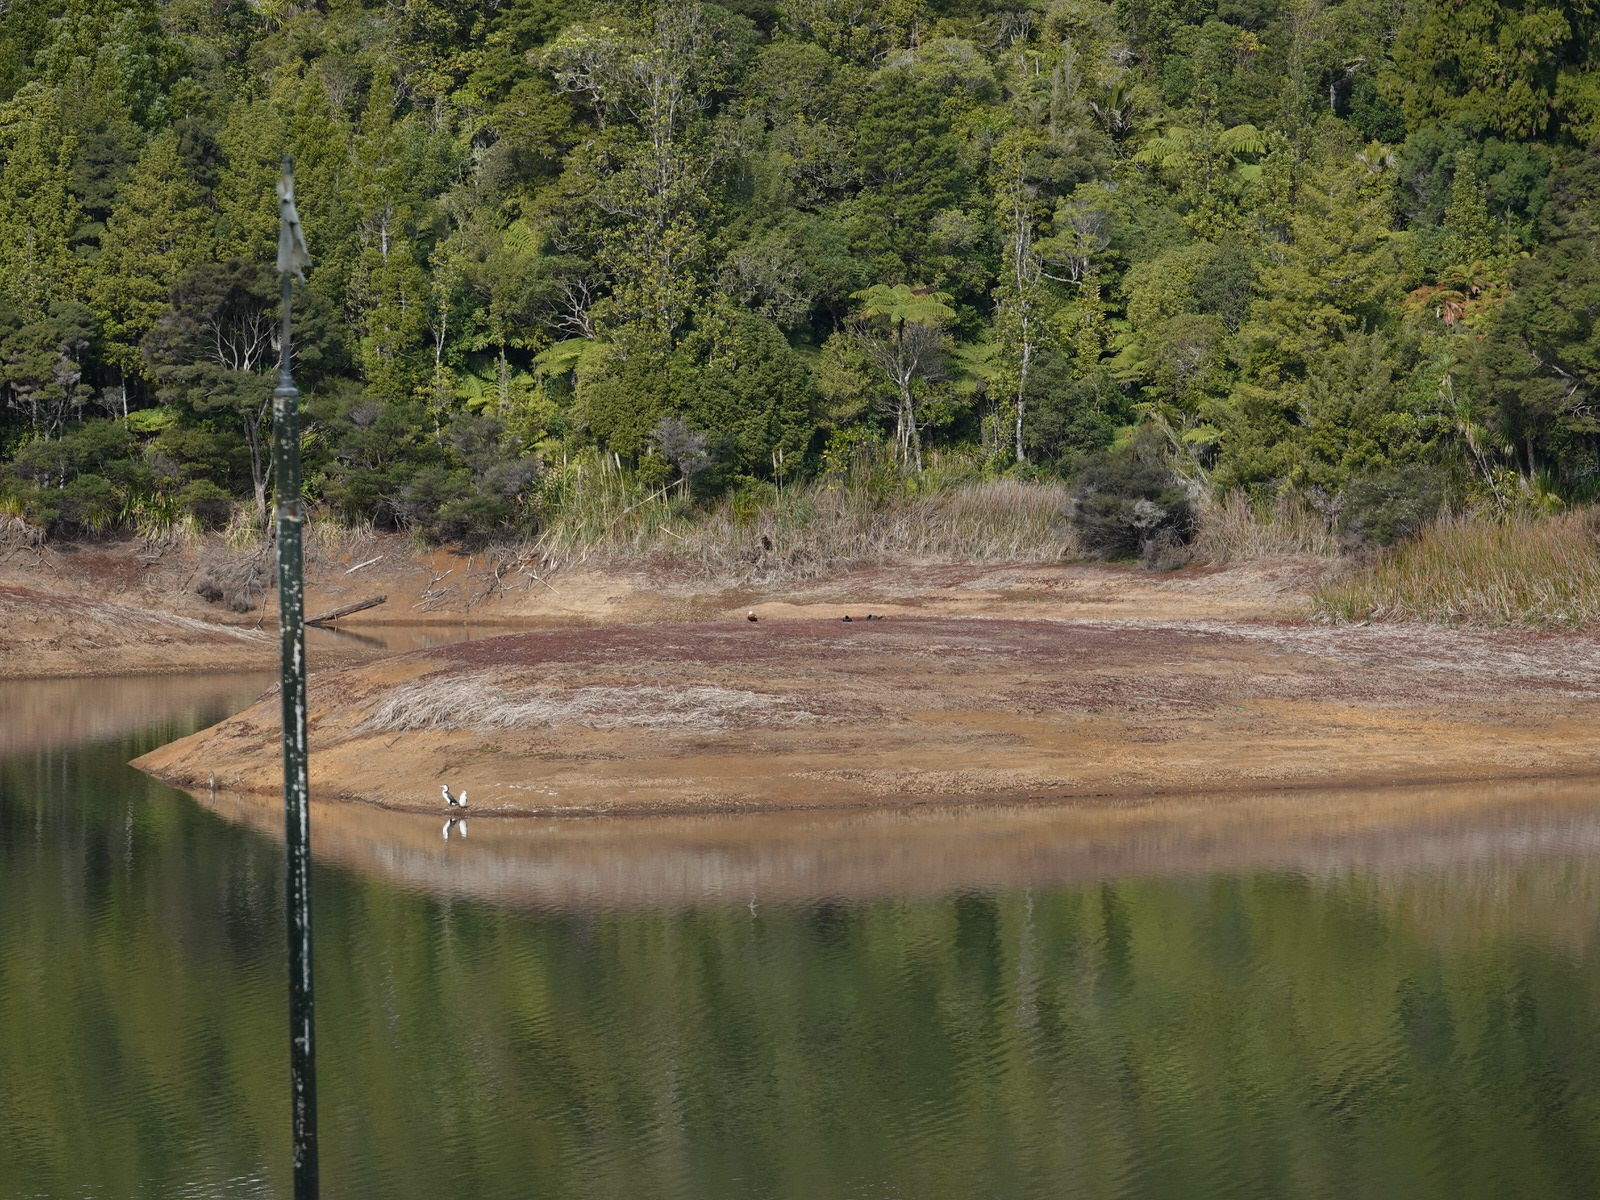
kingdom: Animalia
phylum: Chordata
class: Aves
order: Anseriformes
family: Anatidae
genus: Tadorna
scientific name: Tadorna variegata
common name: Paradise shelduck
